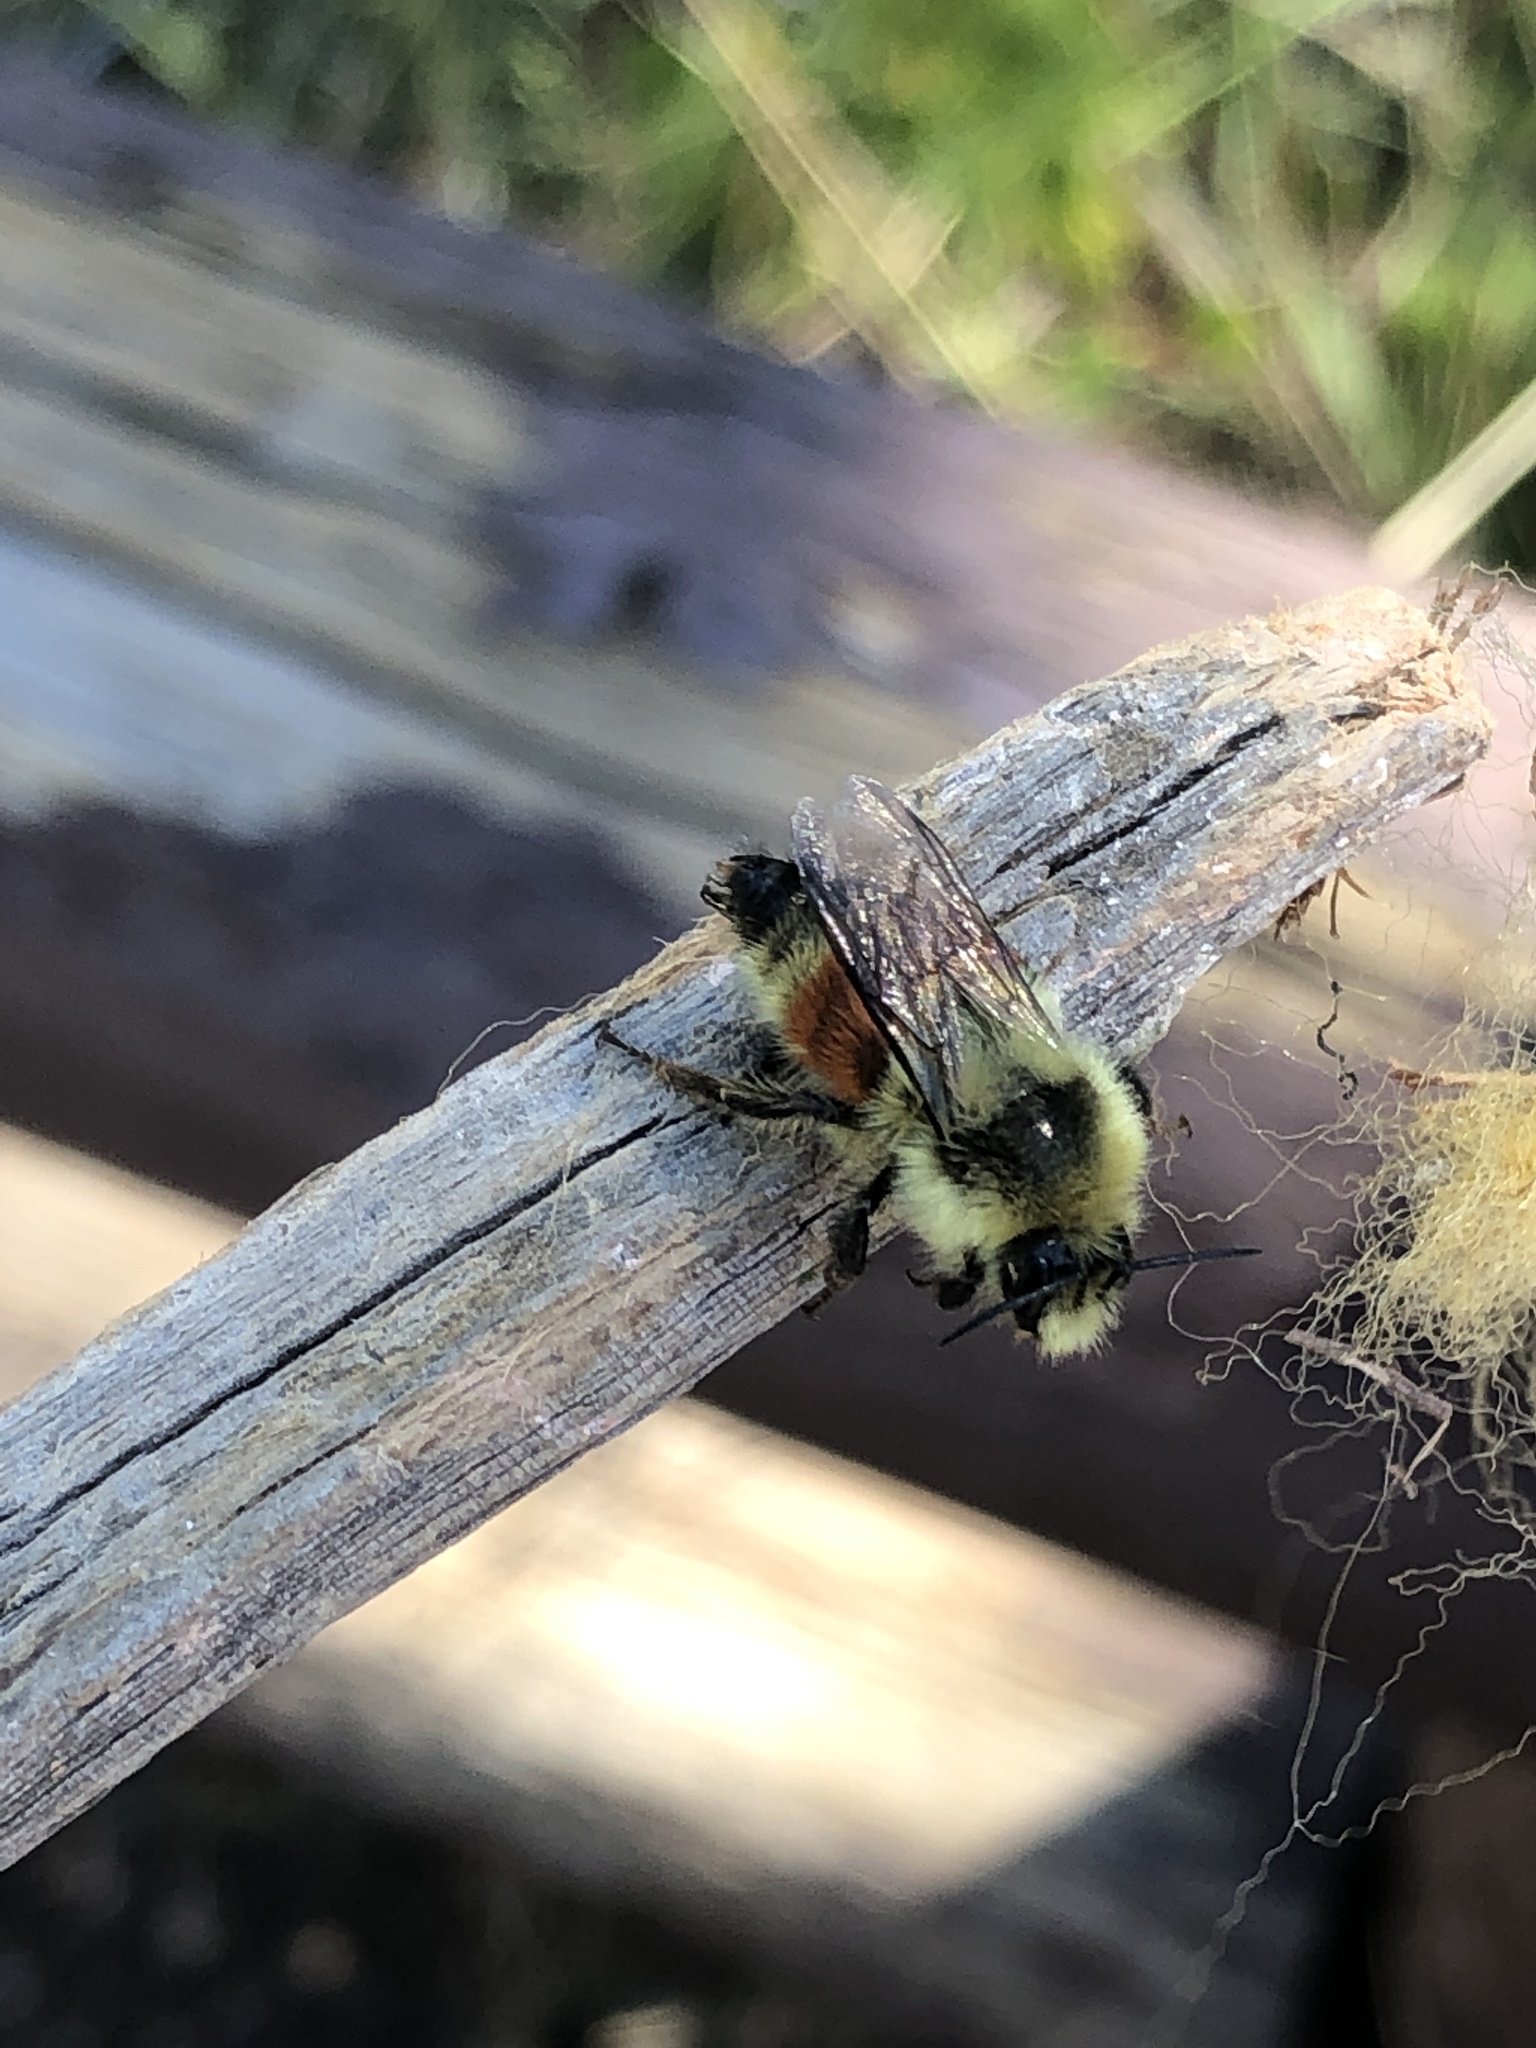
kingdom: Animalia
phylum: Arthropoda
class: Insecta
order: Hymenoptera
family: Apidae
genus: Bombus
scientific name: Bombus huntii
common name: Hunt bumble bee
